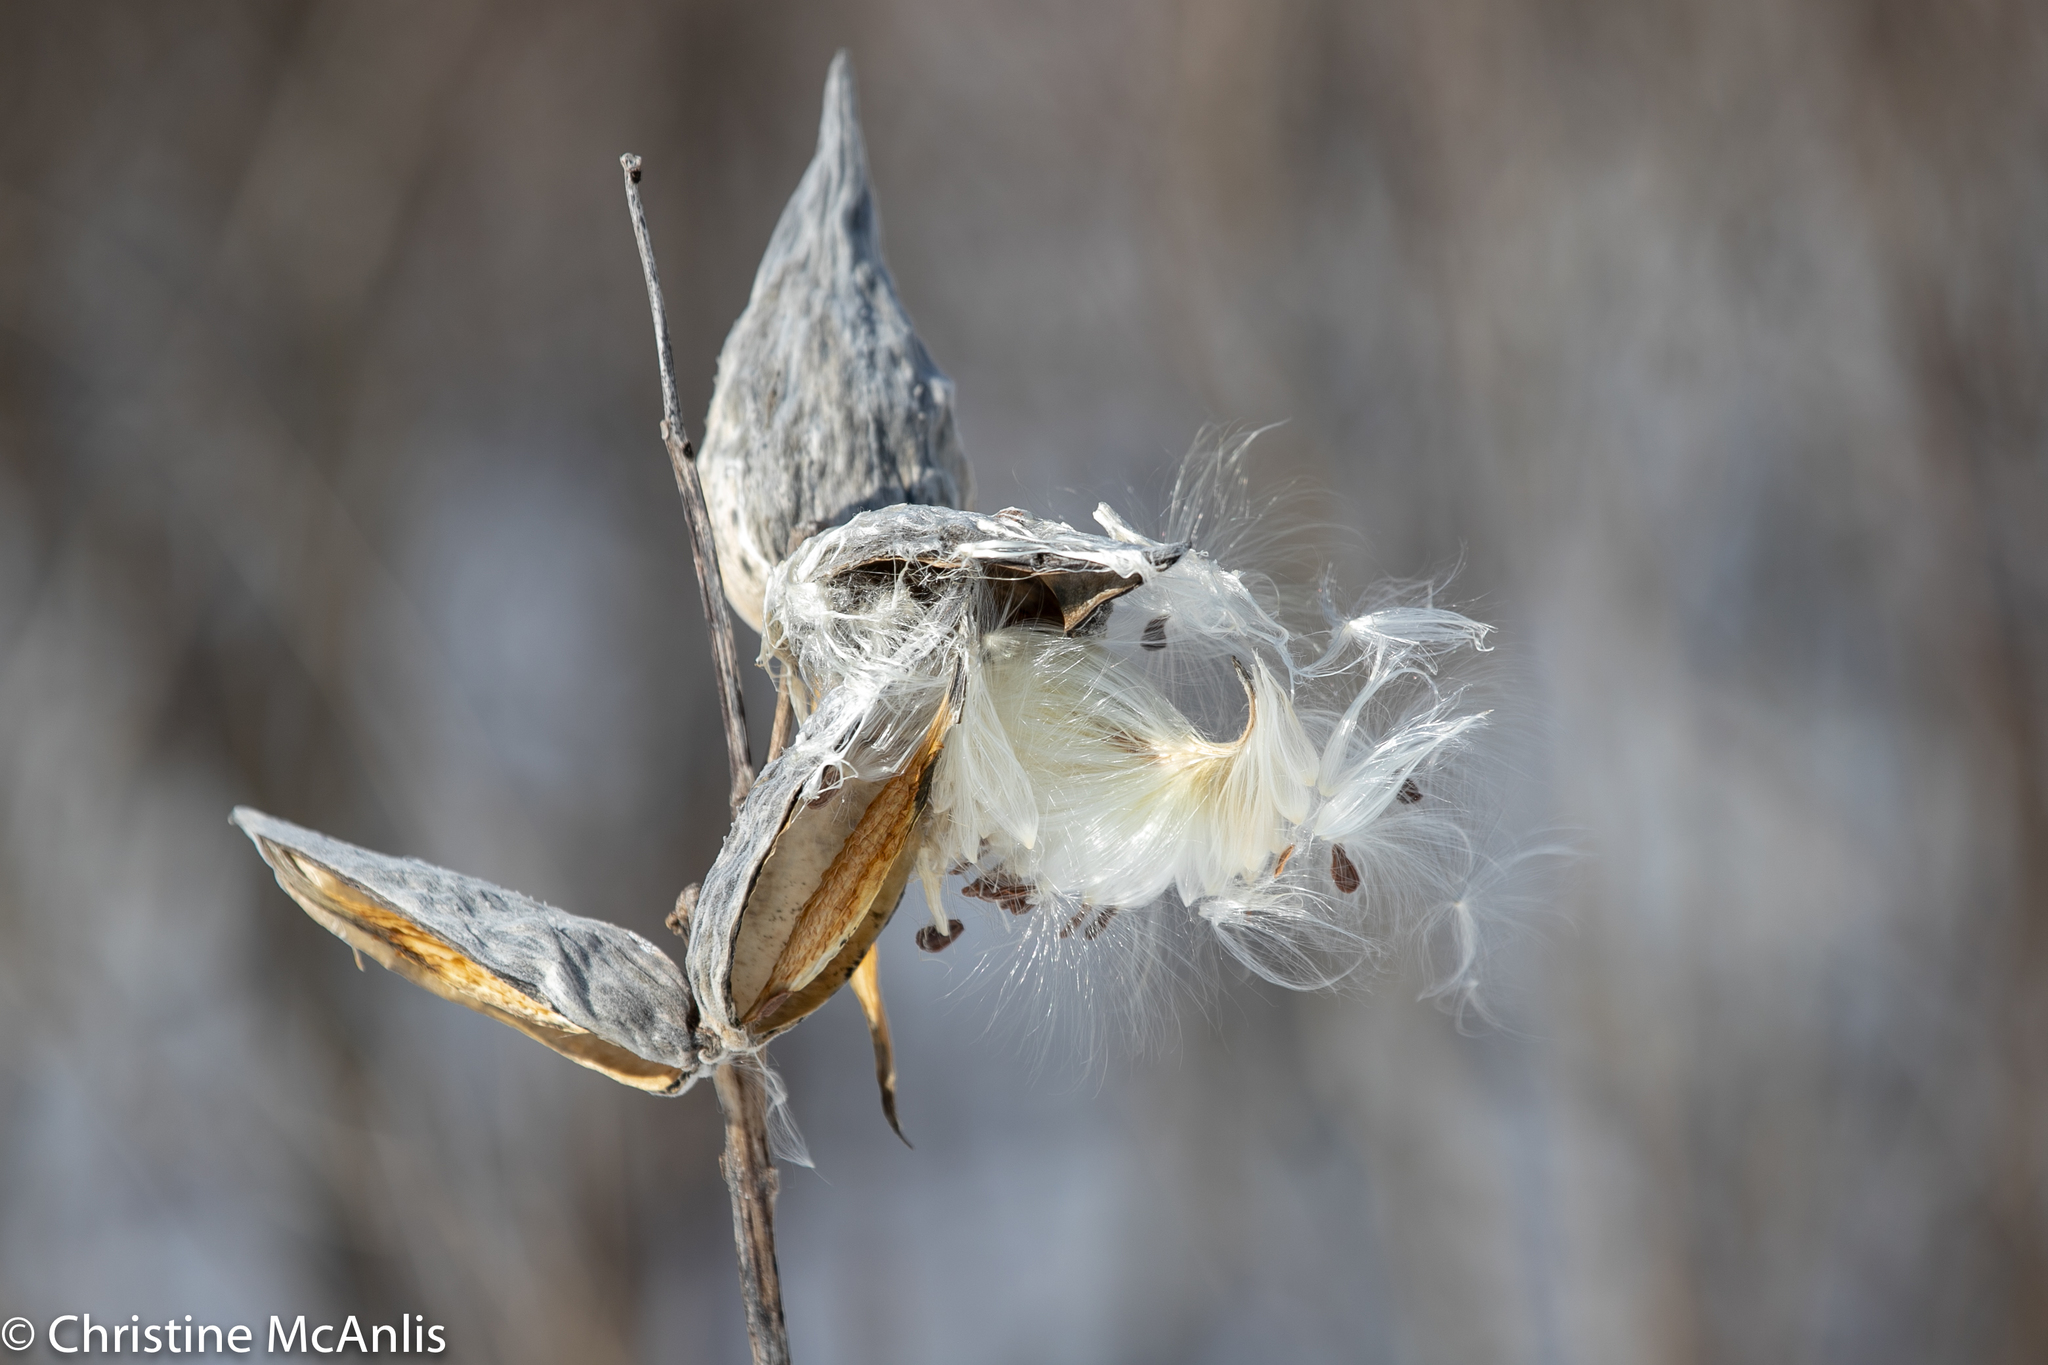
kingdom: Plantae
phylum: Tracheophyta
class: Magnoliopsida
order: Gentianales
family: Apocynaceae
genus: Asclepias
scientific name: Asclepias syriaca
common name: Common milkweed
